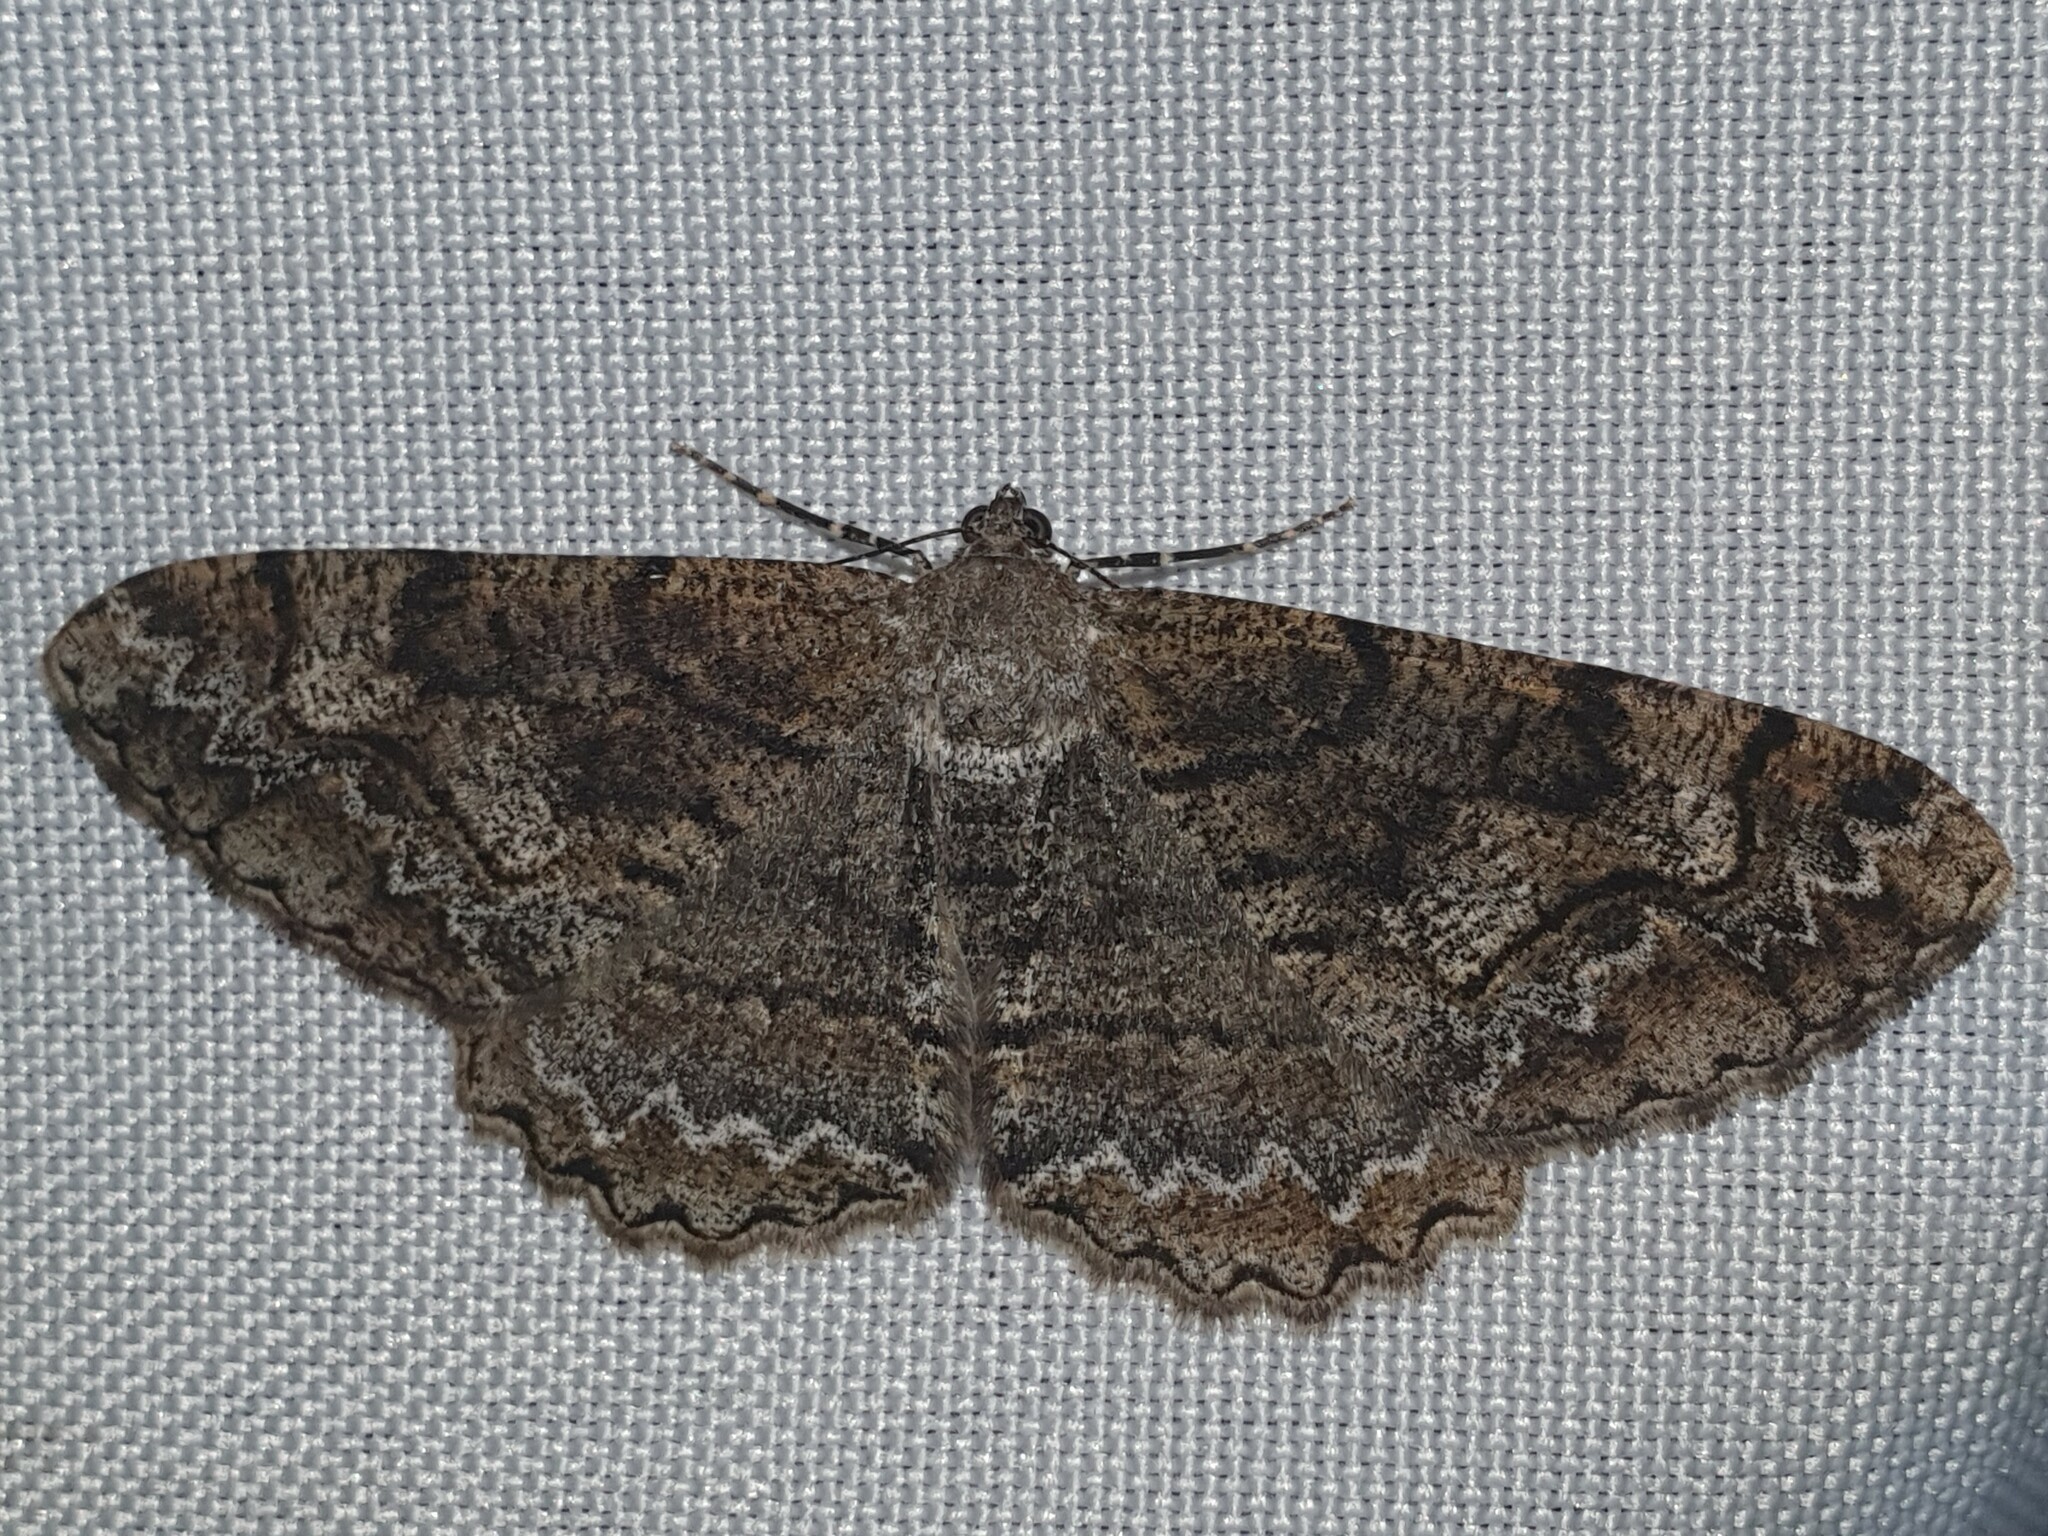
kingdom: Animalia
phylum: Arthropoda
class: Insecta
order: Lepidoptera
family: Geometridae
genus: Alcis
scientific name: Alcis repandata
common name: Mottled beauty
